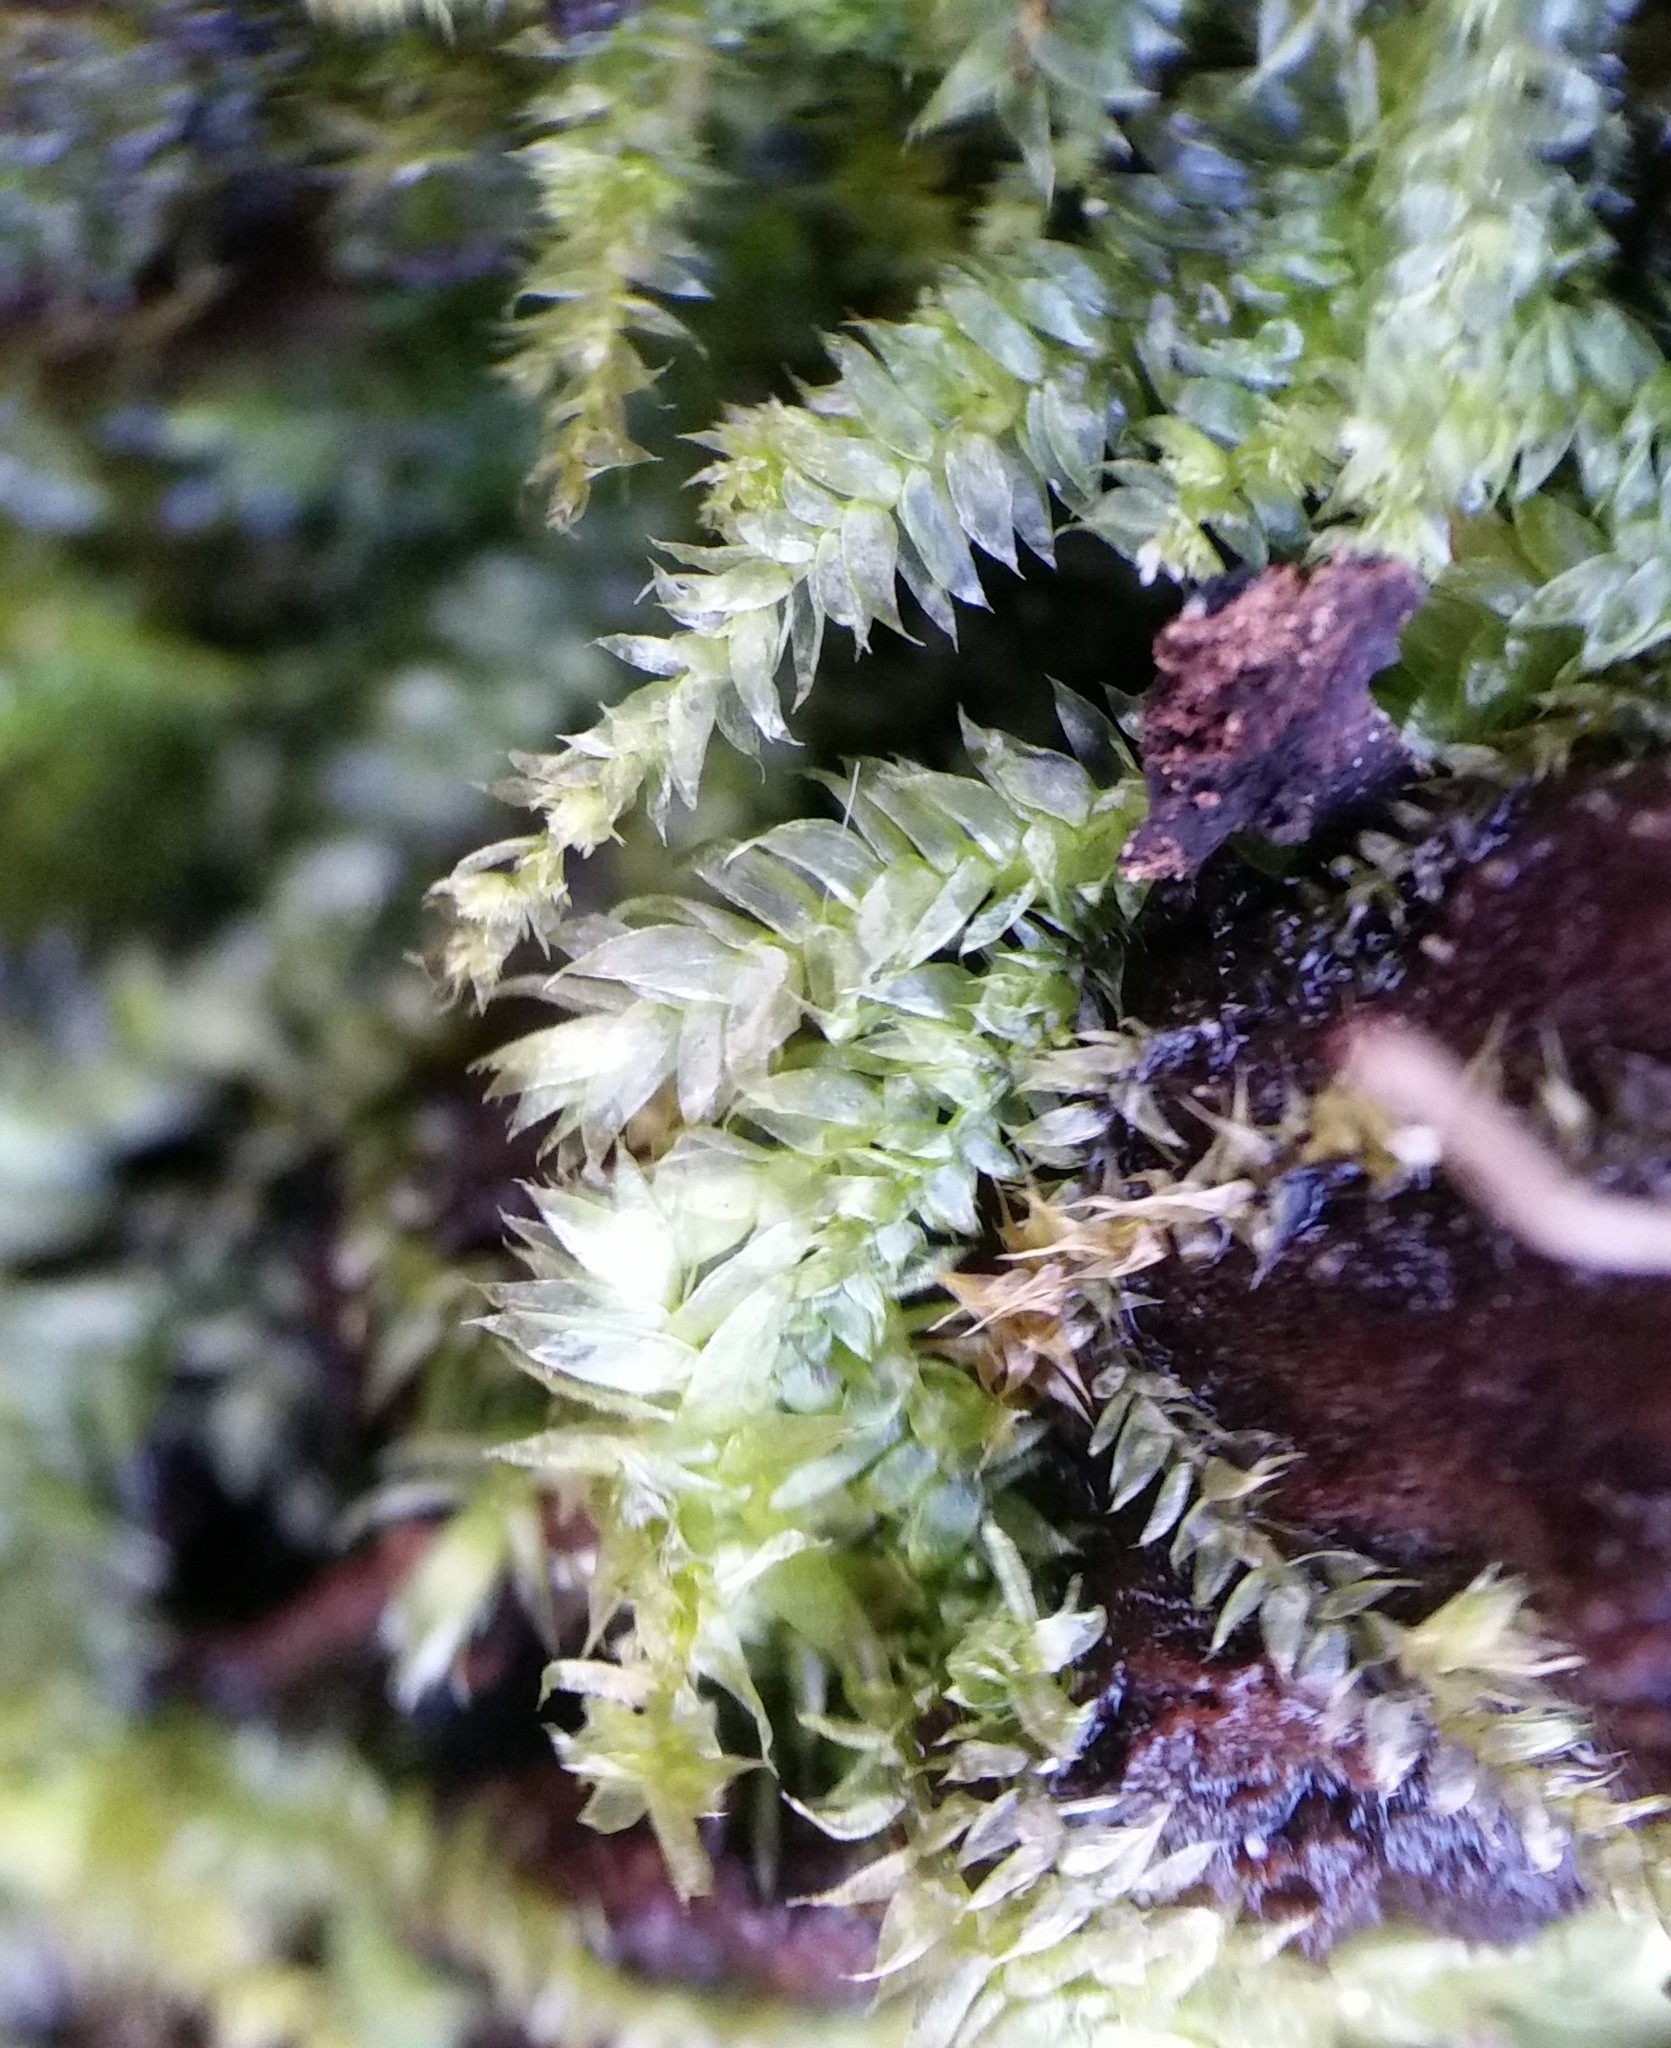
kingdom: Plantae
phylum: Bryophyta
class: Bryopsida
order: Hypnales
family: Neckeraceae
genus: Longiella
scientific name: Longiella distichacea
